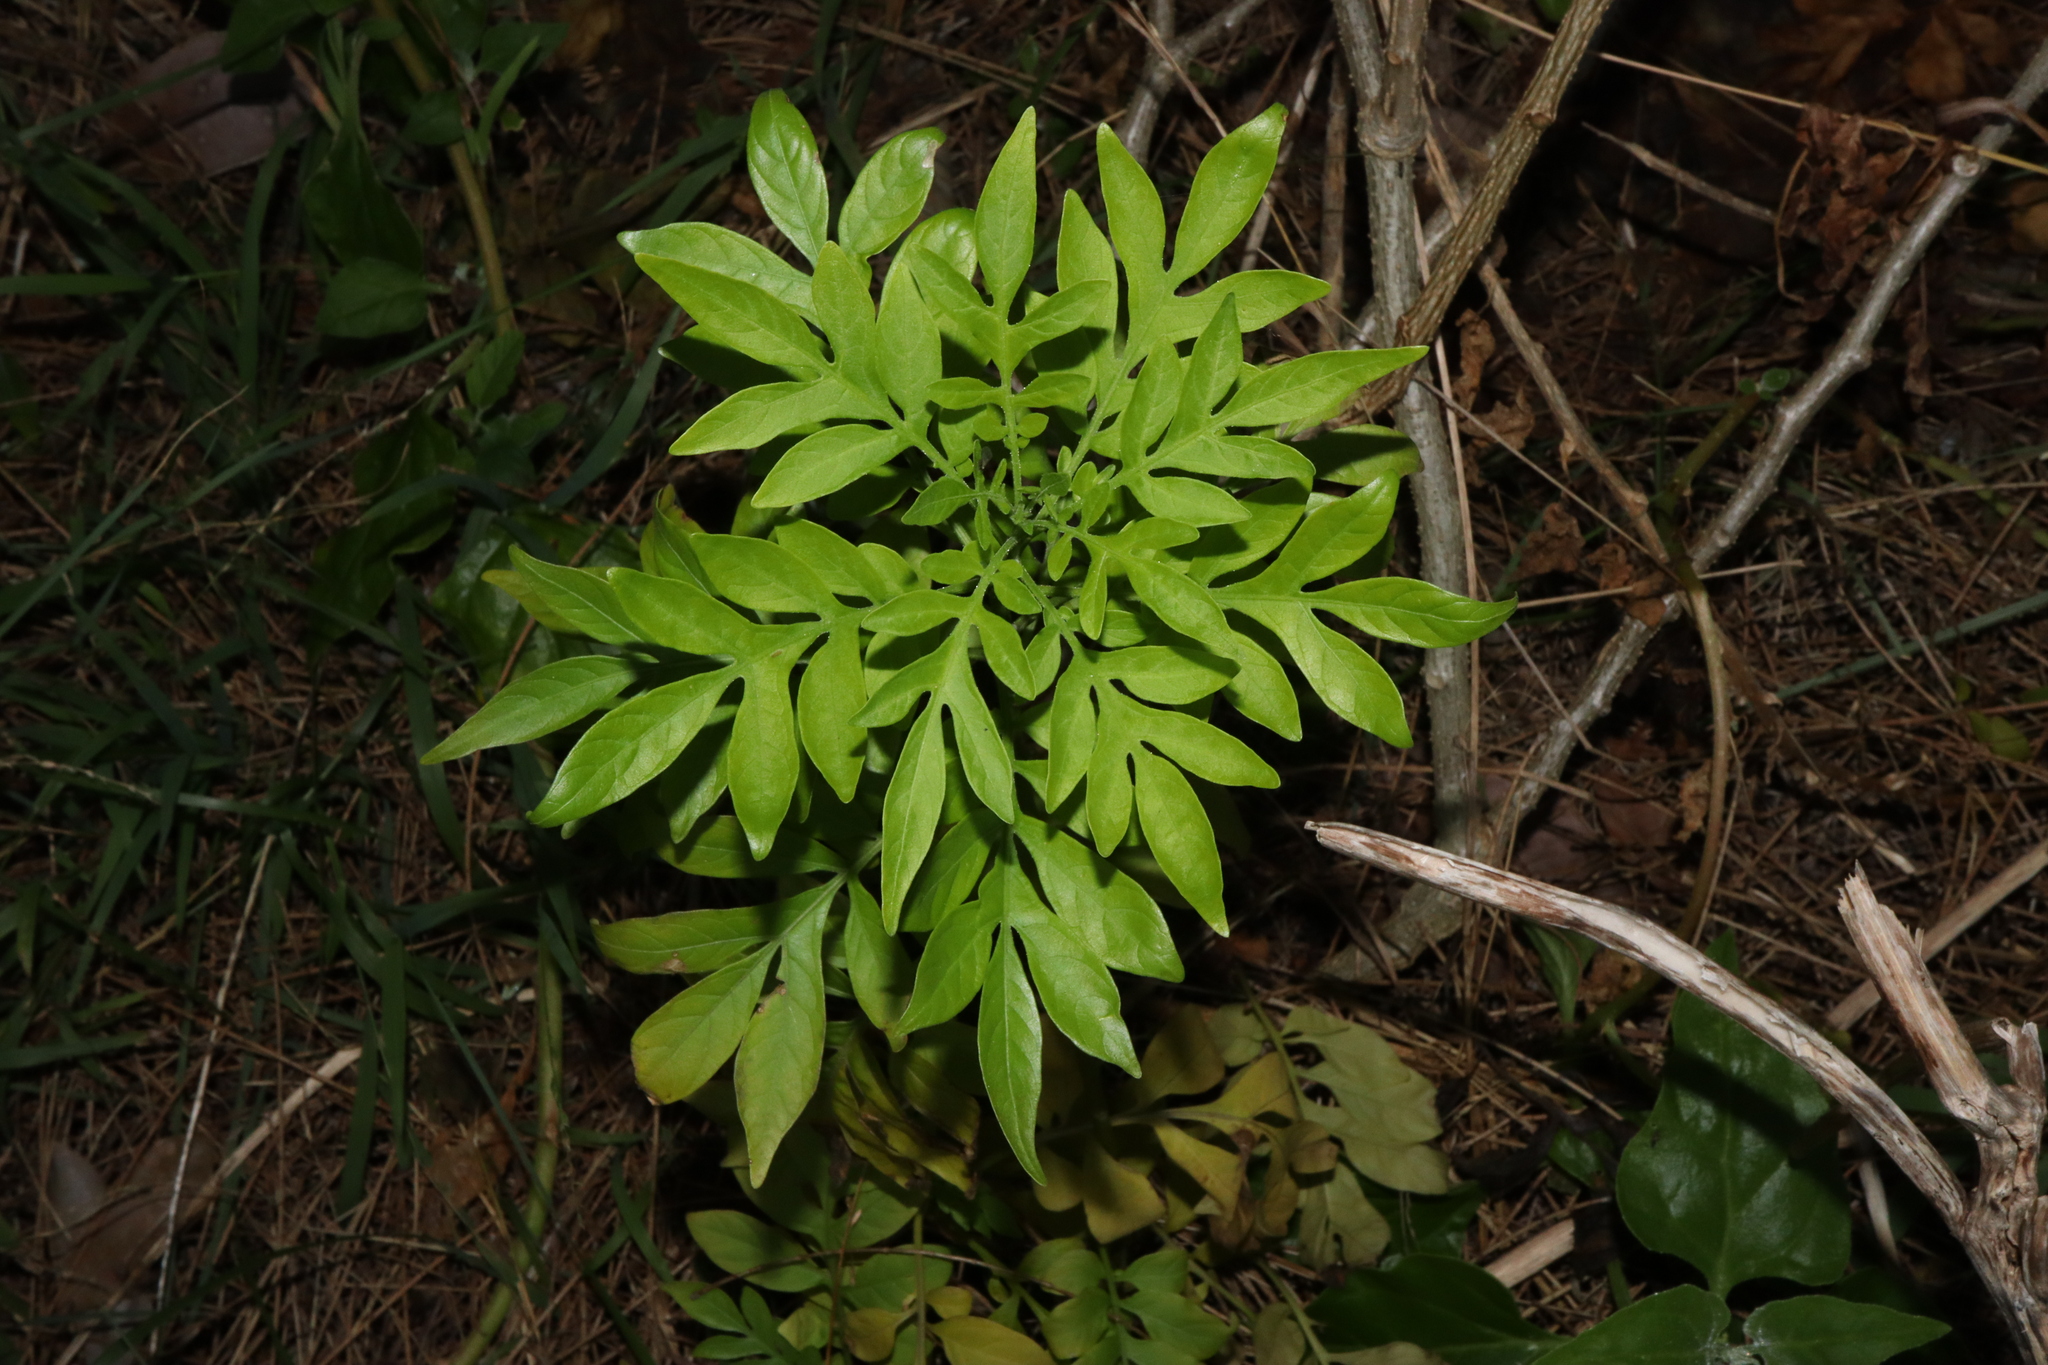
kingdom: Plantae
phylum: Tracheophyta
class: Magnoliopsida
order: Solanales
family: Solanaceae
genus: Solanum
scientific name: Solanum seaforthianum
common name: Brazilian nightshade
